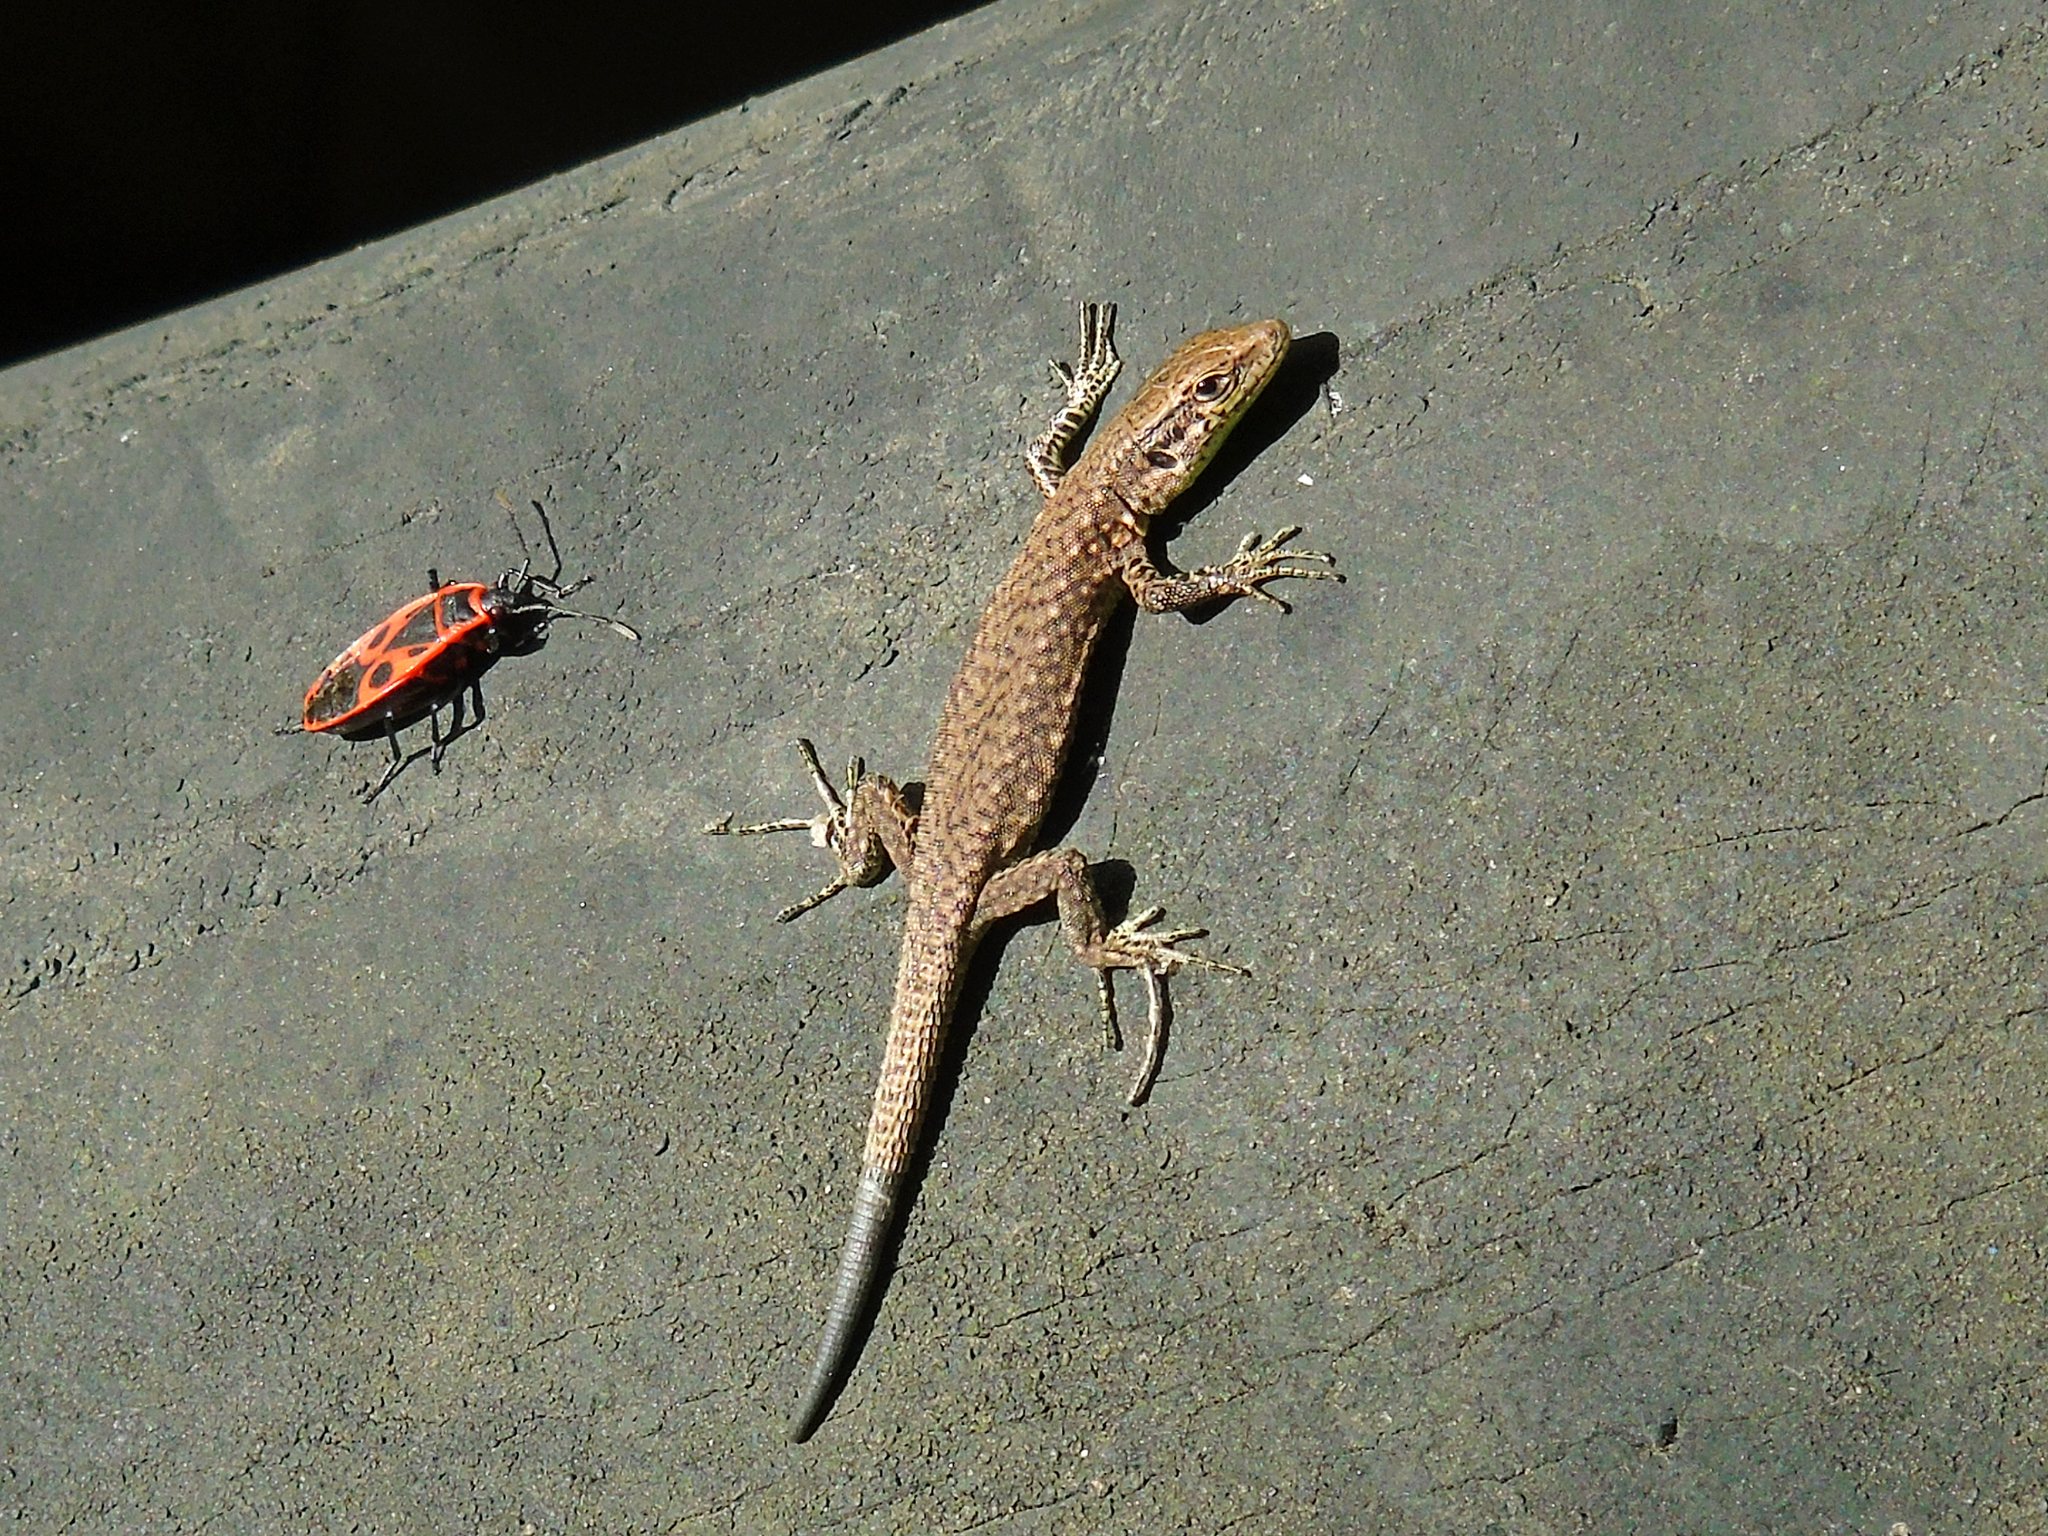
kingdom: Animalia
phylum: Chordata
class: Squamata
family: Lacertidae
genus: Darevskia
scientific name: Darevskia rudis
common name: Spiny-tailed lizard
